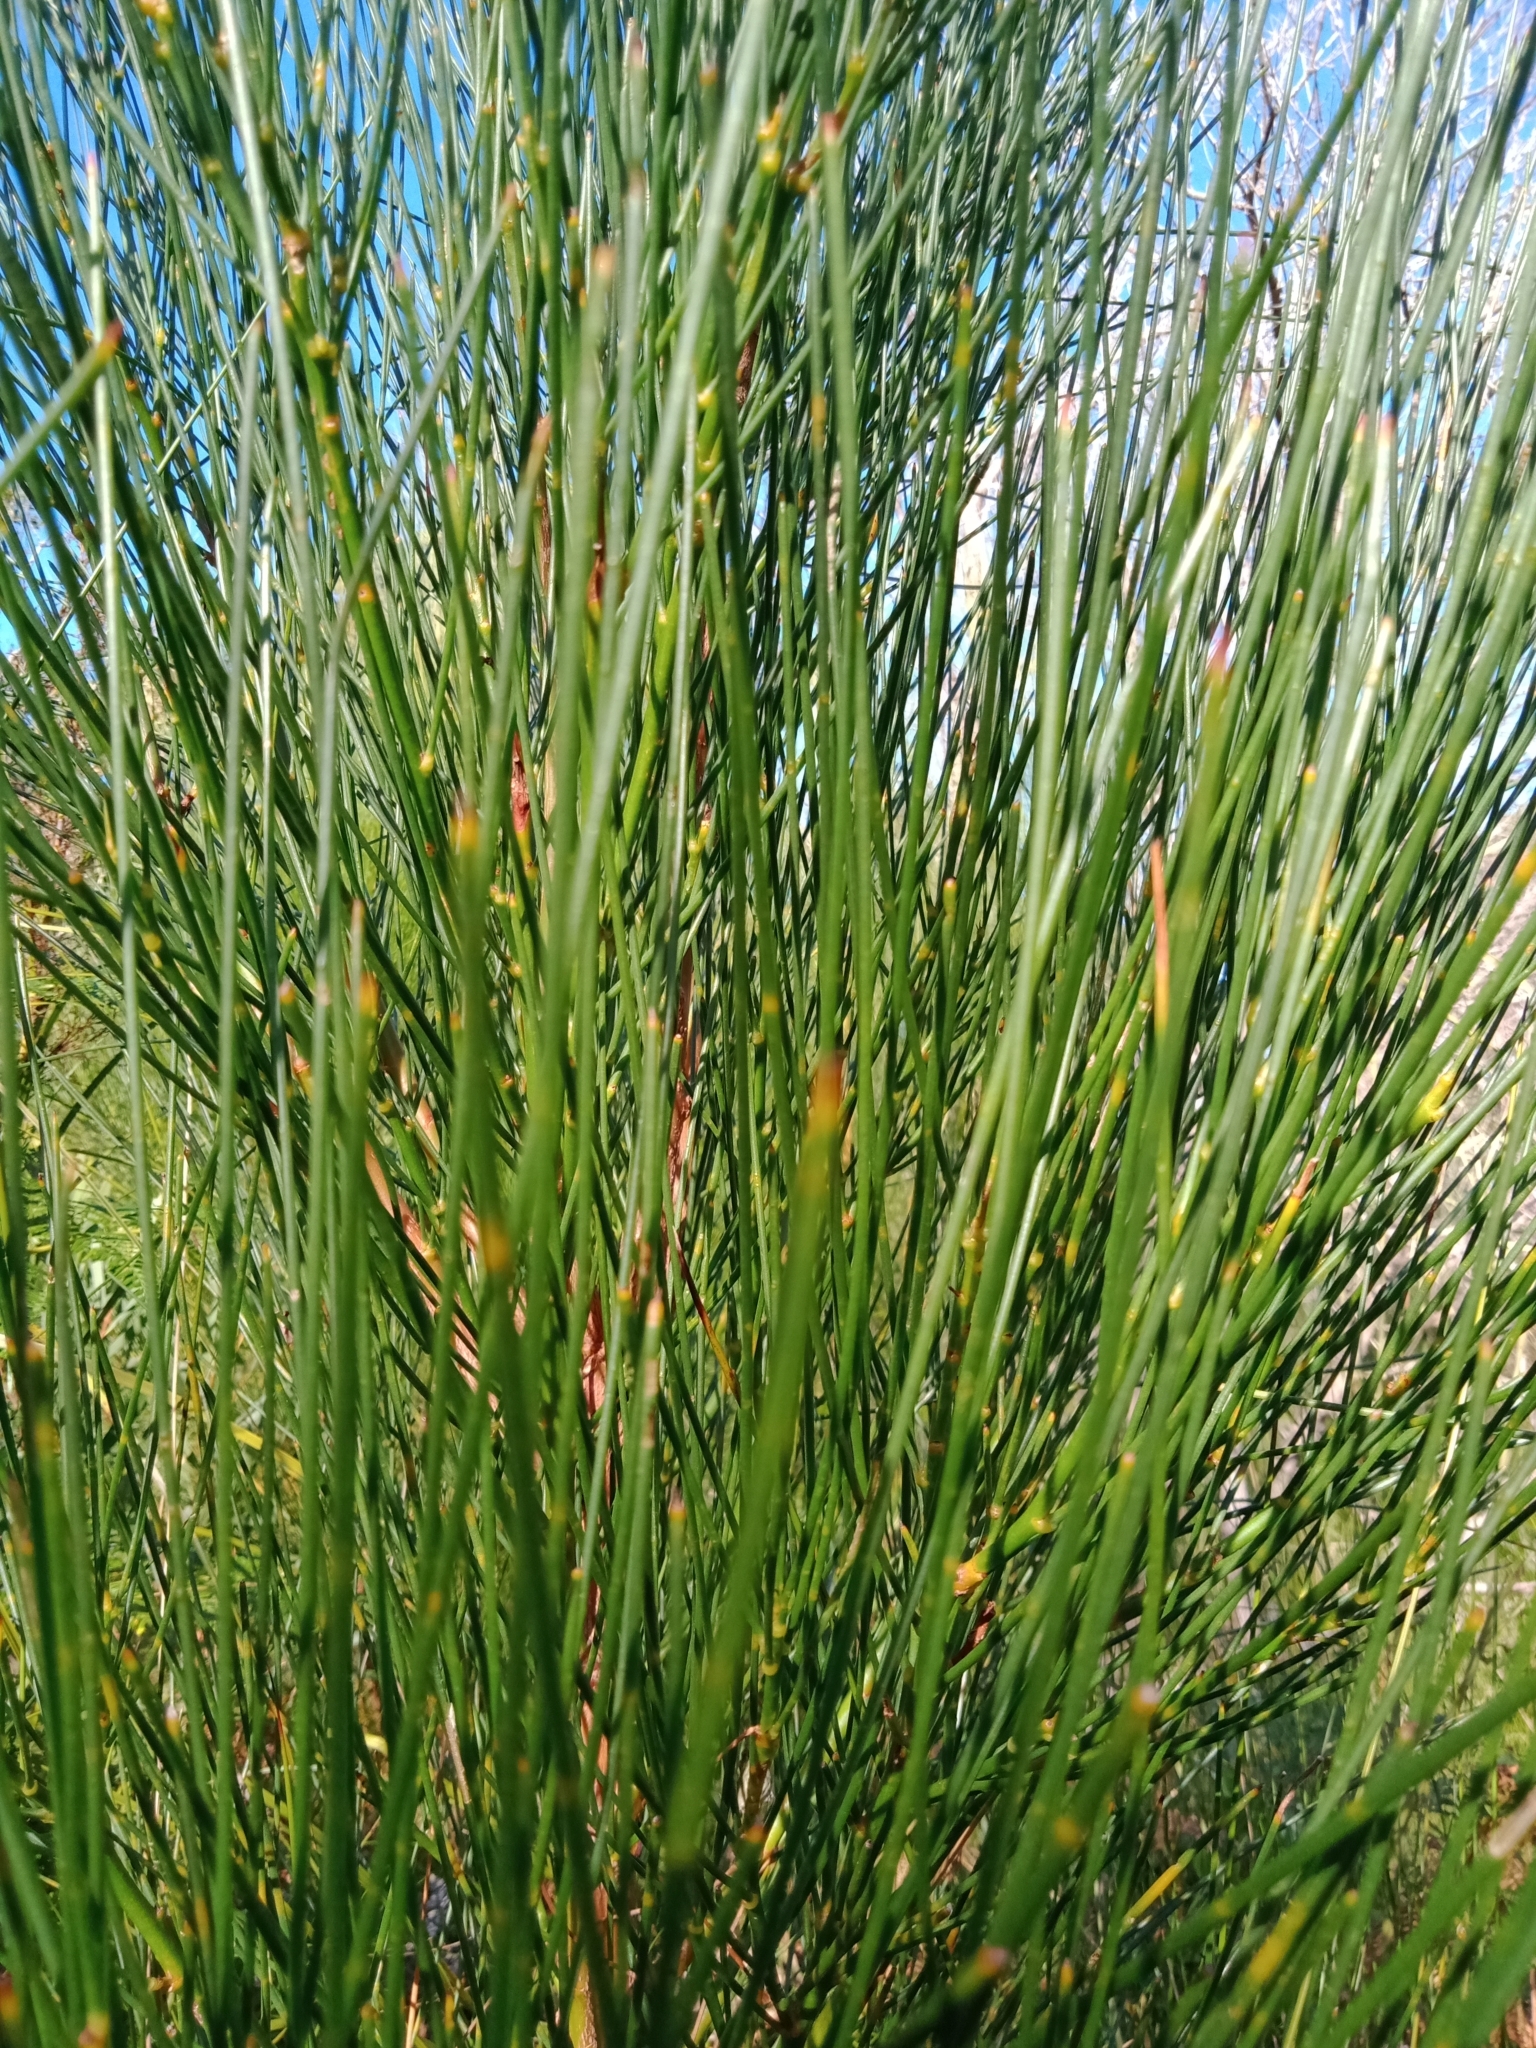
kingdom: Plantae
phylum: Tracheophyta
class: Magnoliopsida
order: Fabales
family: Fabaceae
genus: Viminaria
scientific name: Viminaria juncea
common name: Golden spray
